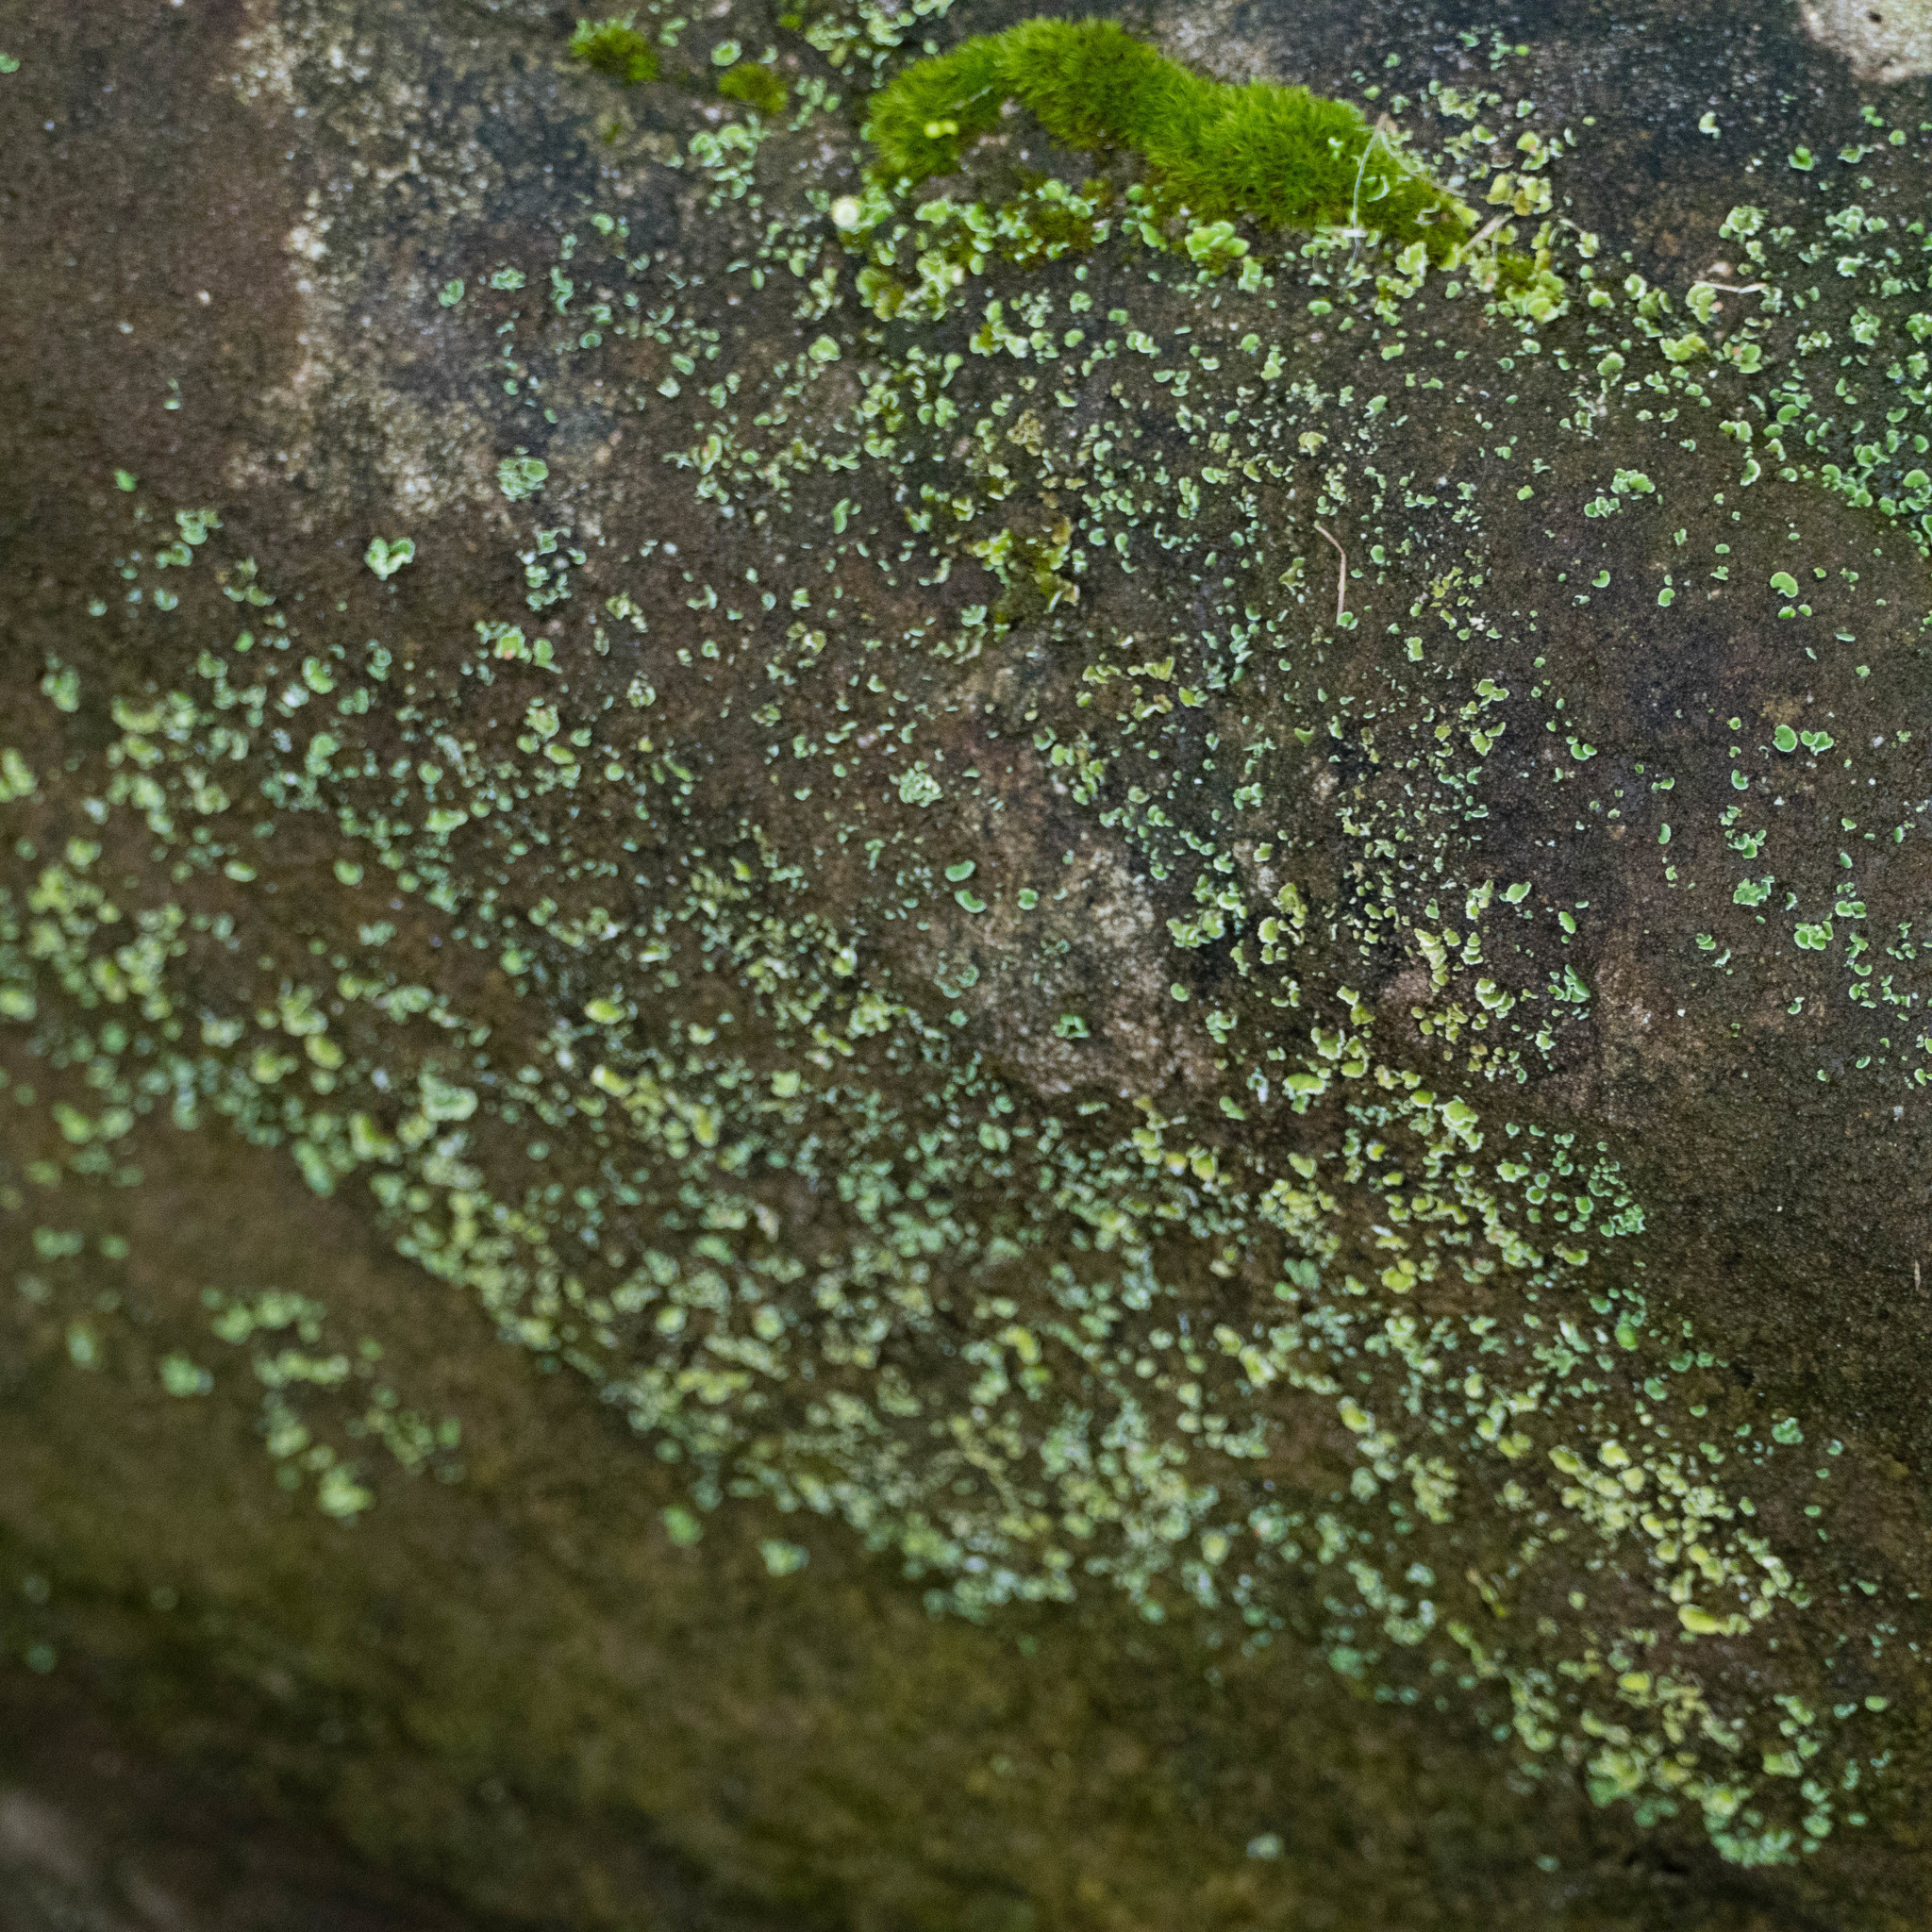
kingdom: Fungi
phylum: Ascomycota
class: Lecanoromycetes
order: Lecanorales
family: Cladoniaceae
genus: Cladonia
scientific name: Cladonia
